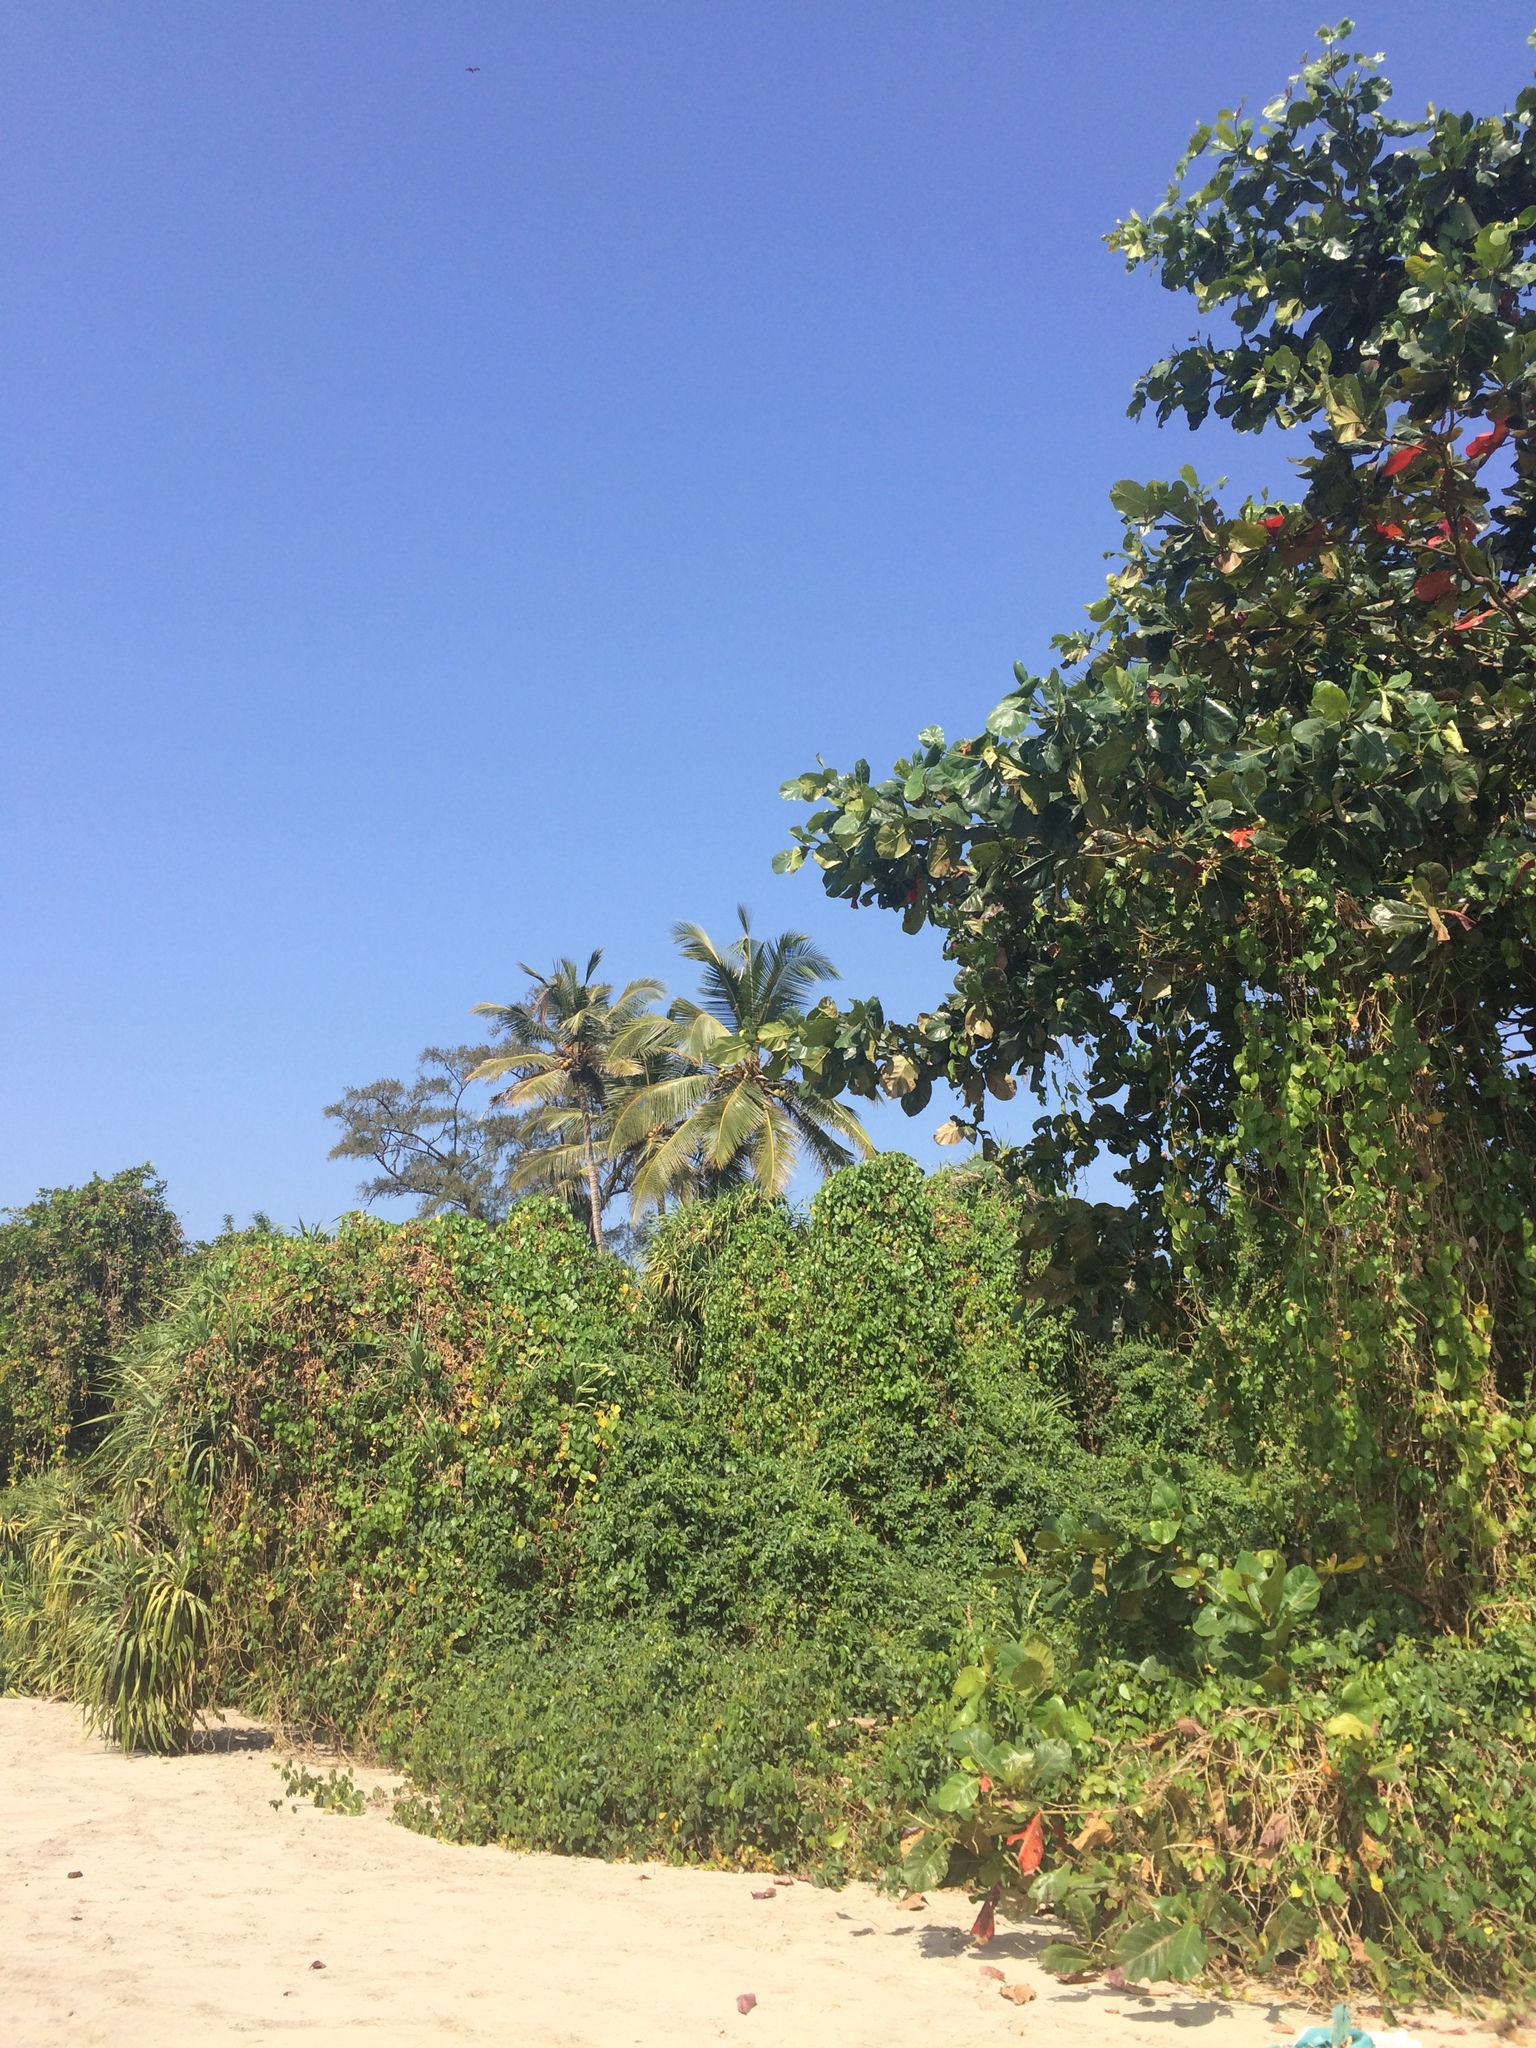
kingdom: Plantae
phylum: Tracheophyta
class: Liliopsida
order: Arecales
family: Arecaceae
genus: Cocos
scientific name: Cocos nucifera
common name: Coconut palm
